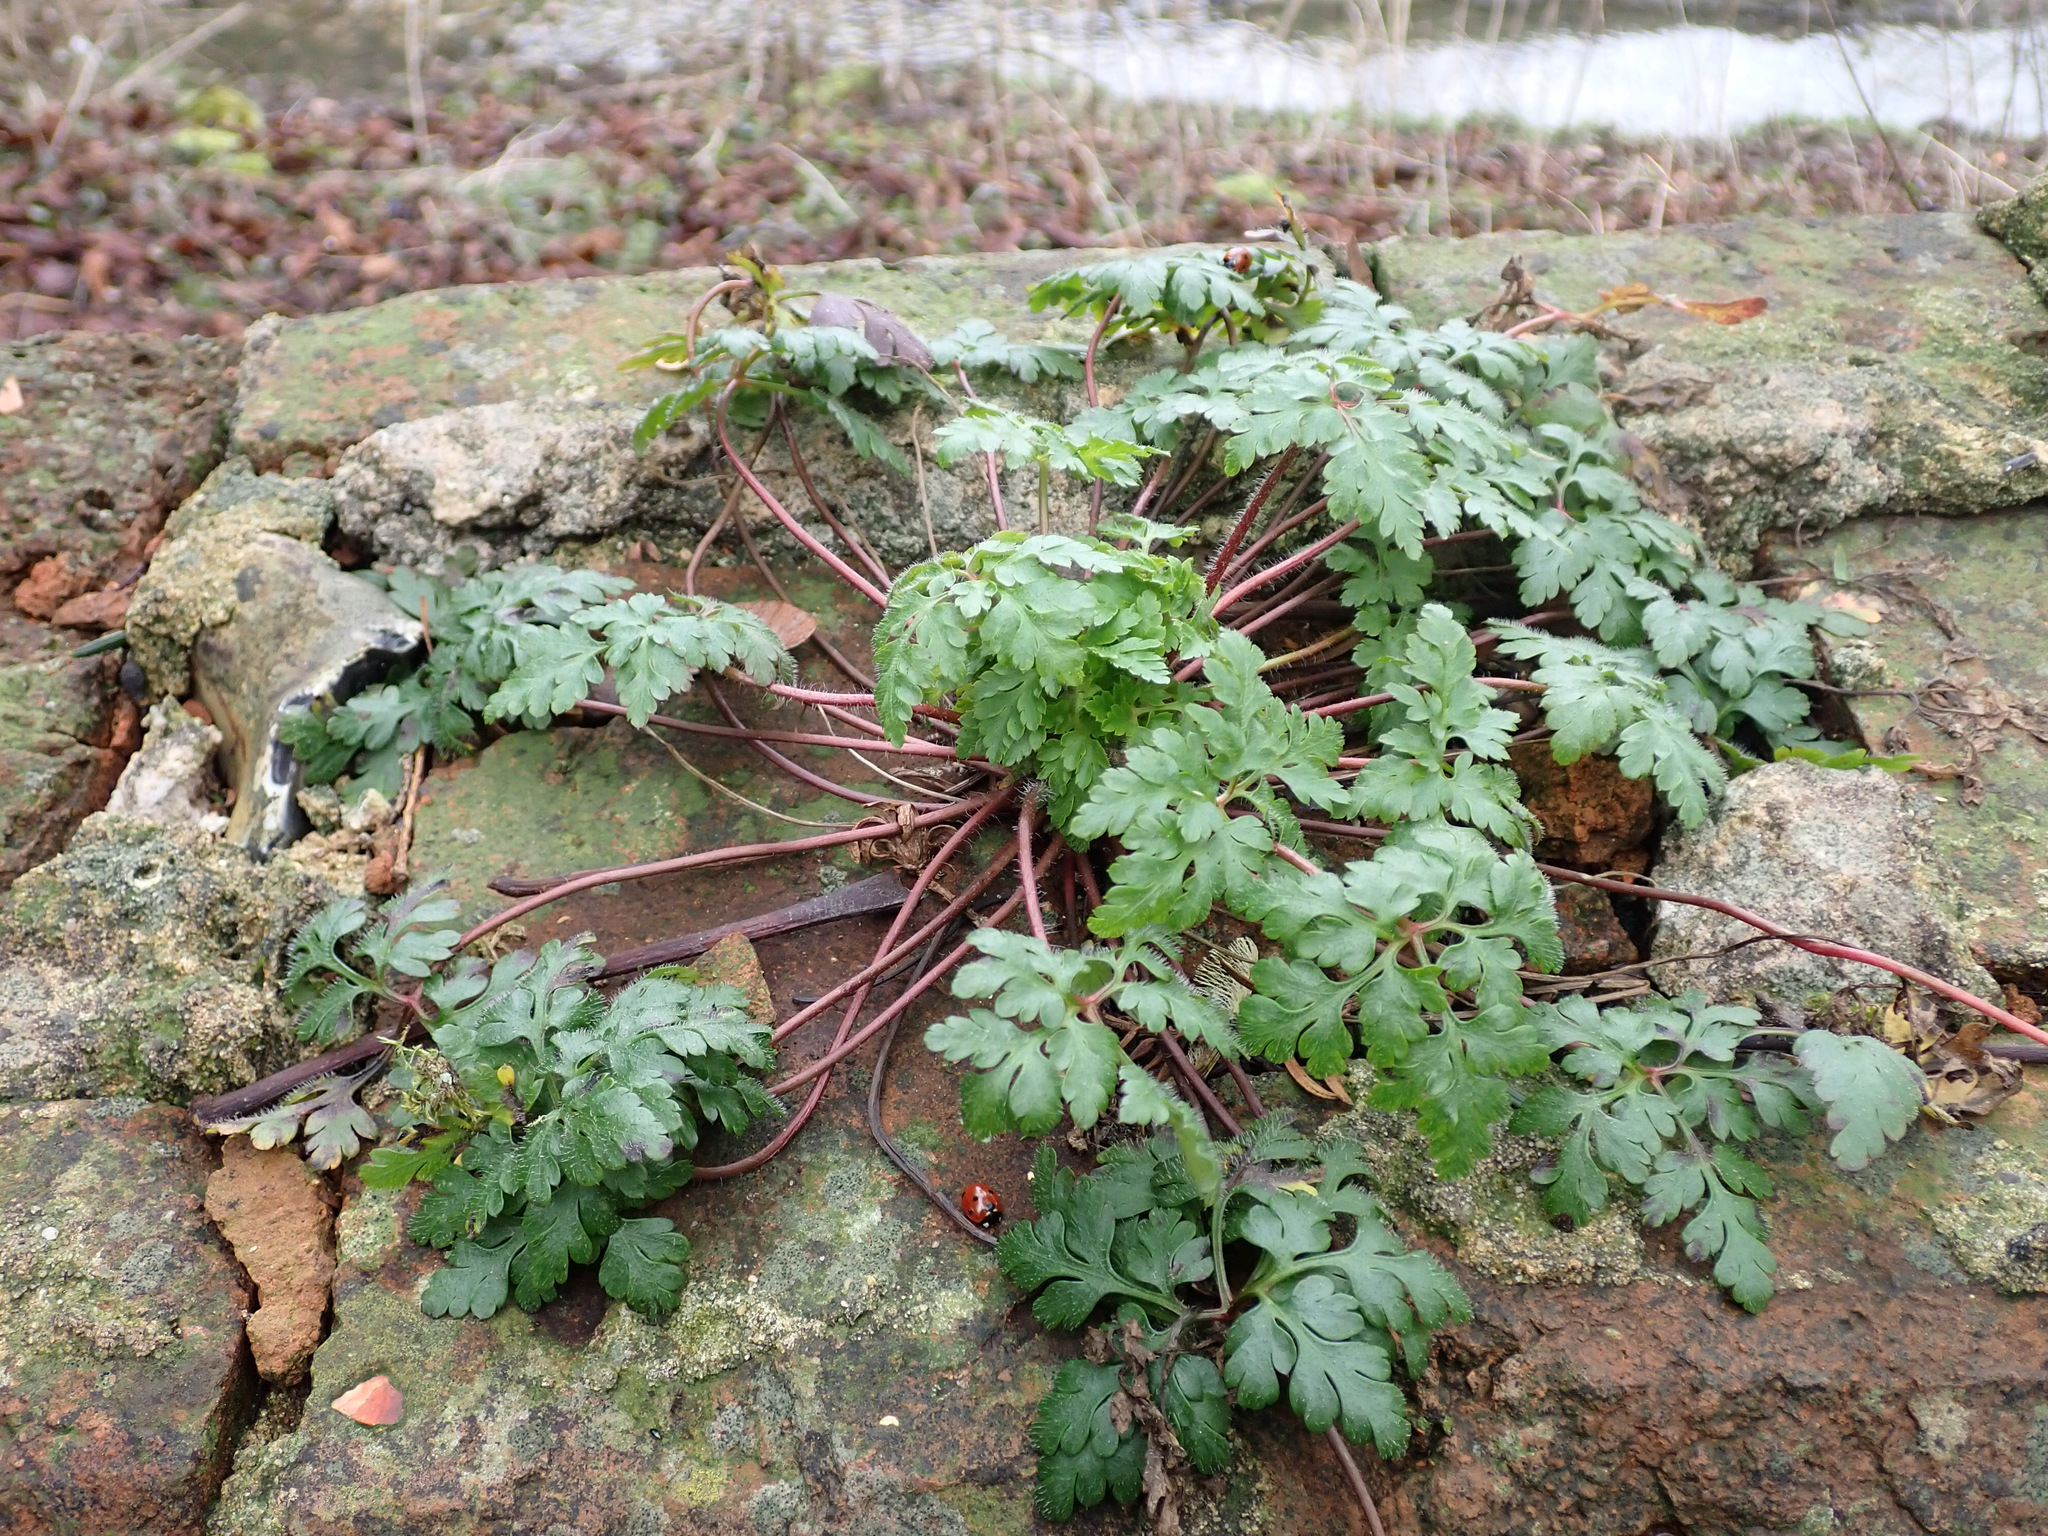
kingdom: Plantae
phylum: Tracheophyta
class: Magnoliopsida
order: Geraniales
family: Geraniaceae
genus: Geranium
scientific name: Geranium robertianum
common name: Herb-robert
